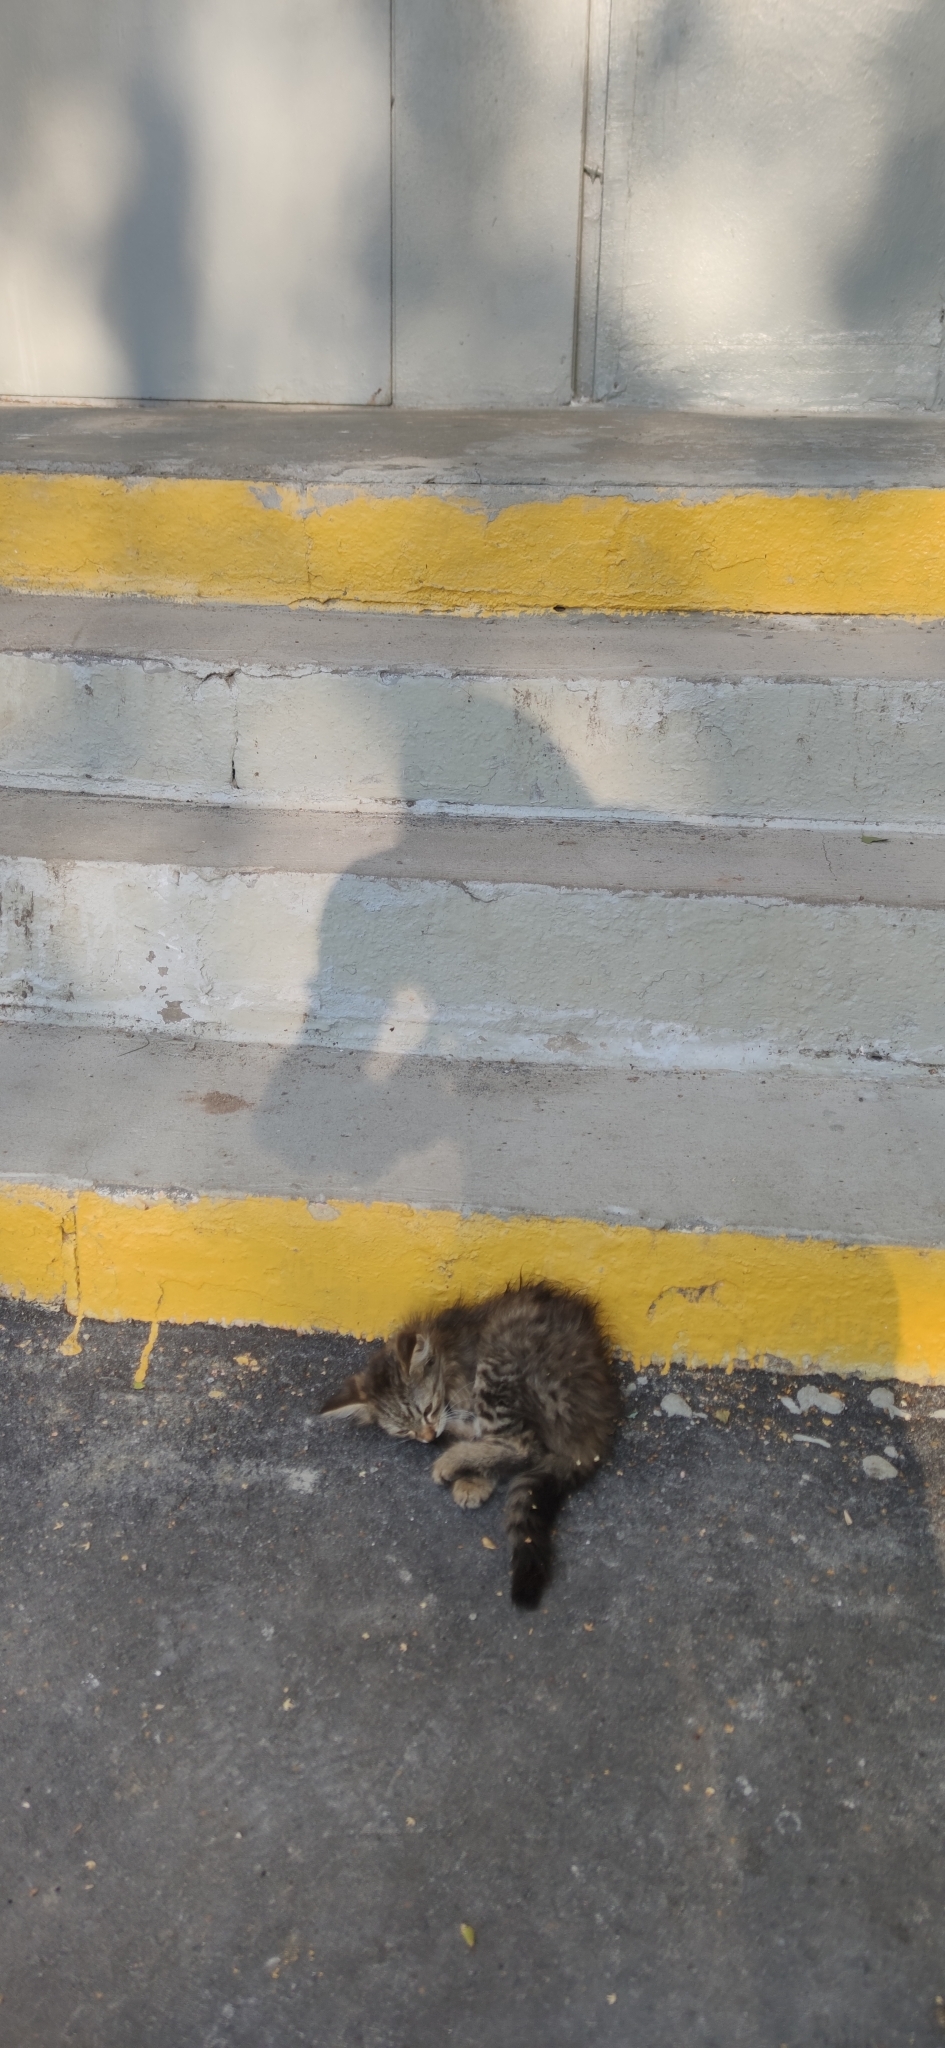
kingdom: Animalia
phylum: Chordata
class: Mammalia
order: Carnivora
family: Felidae
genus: Felis
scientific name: Felis catus
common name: Domestic cat
